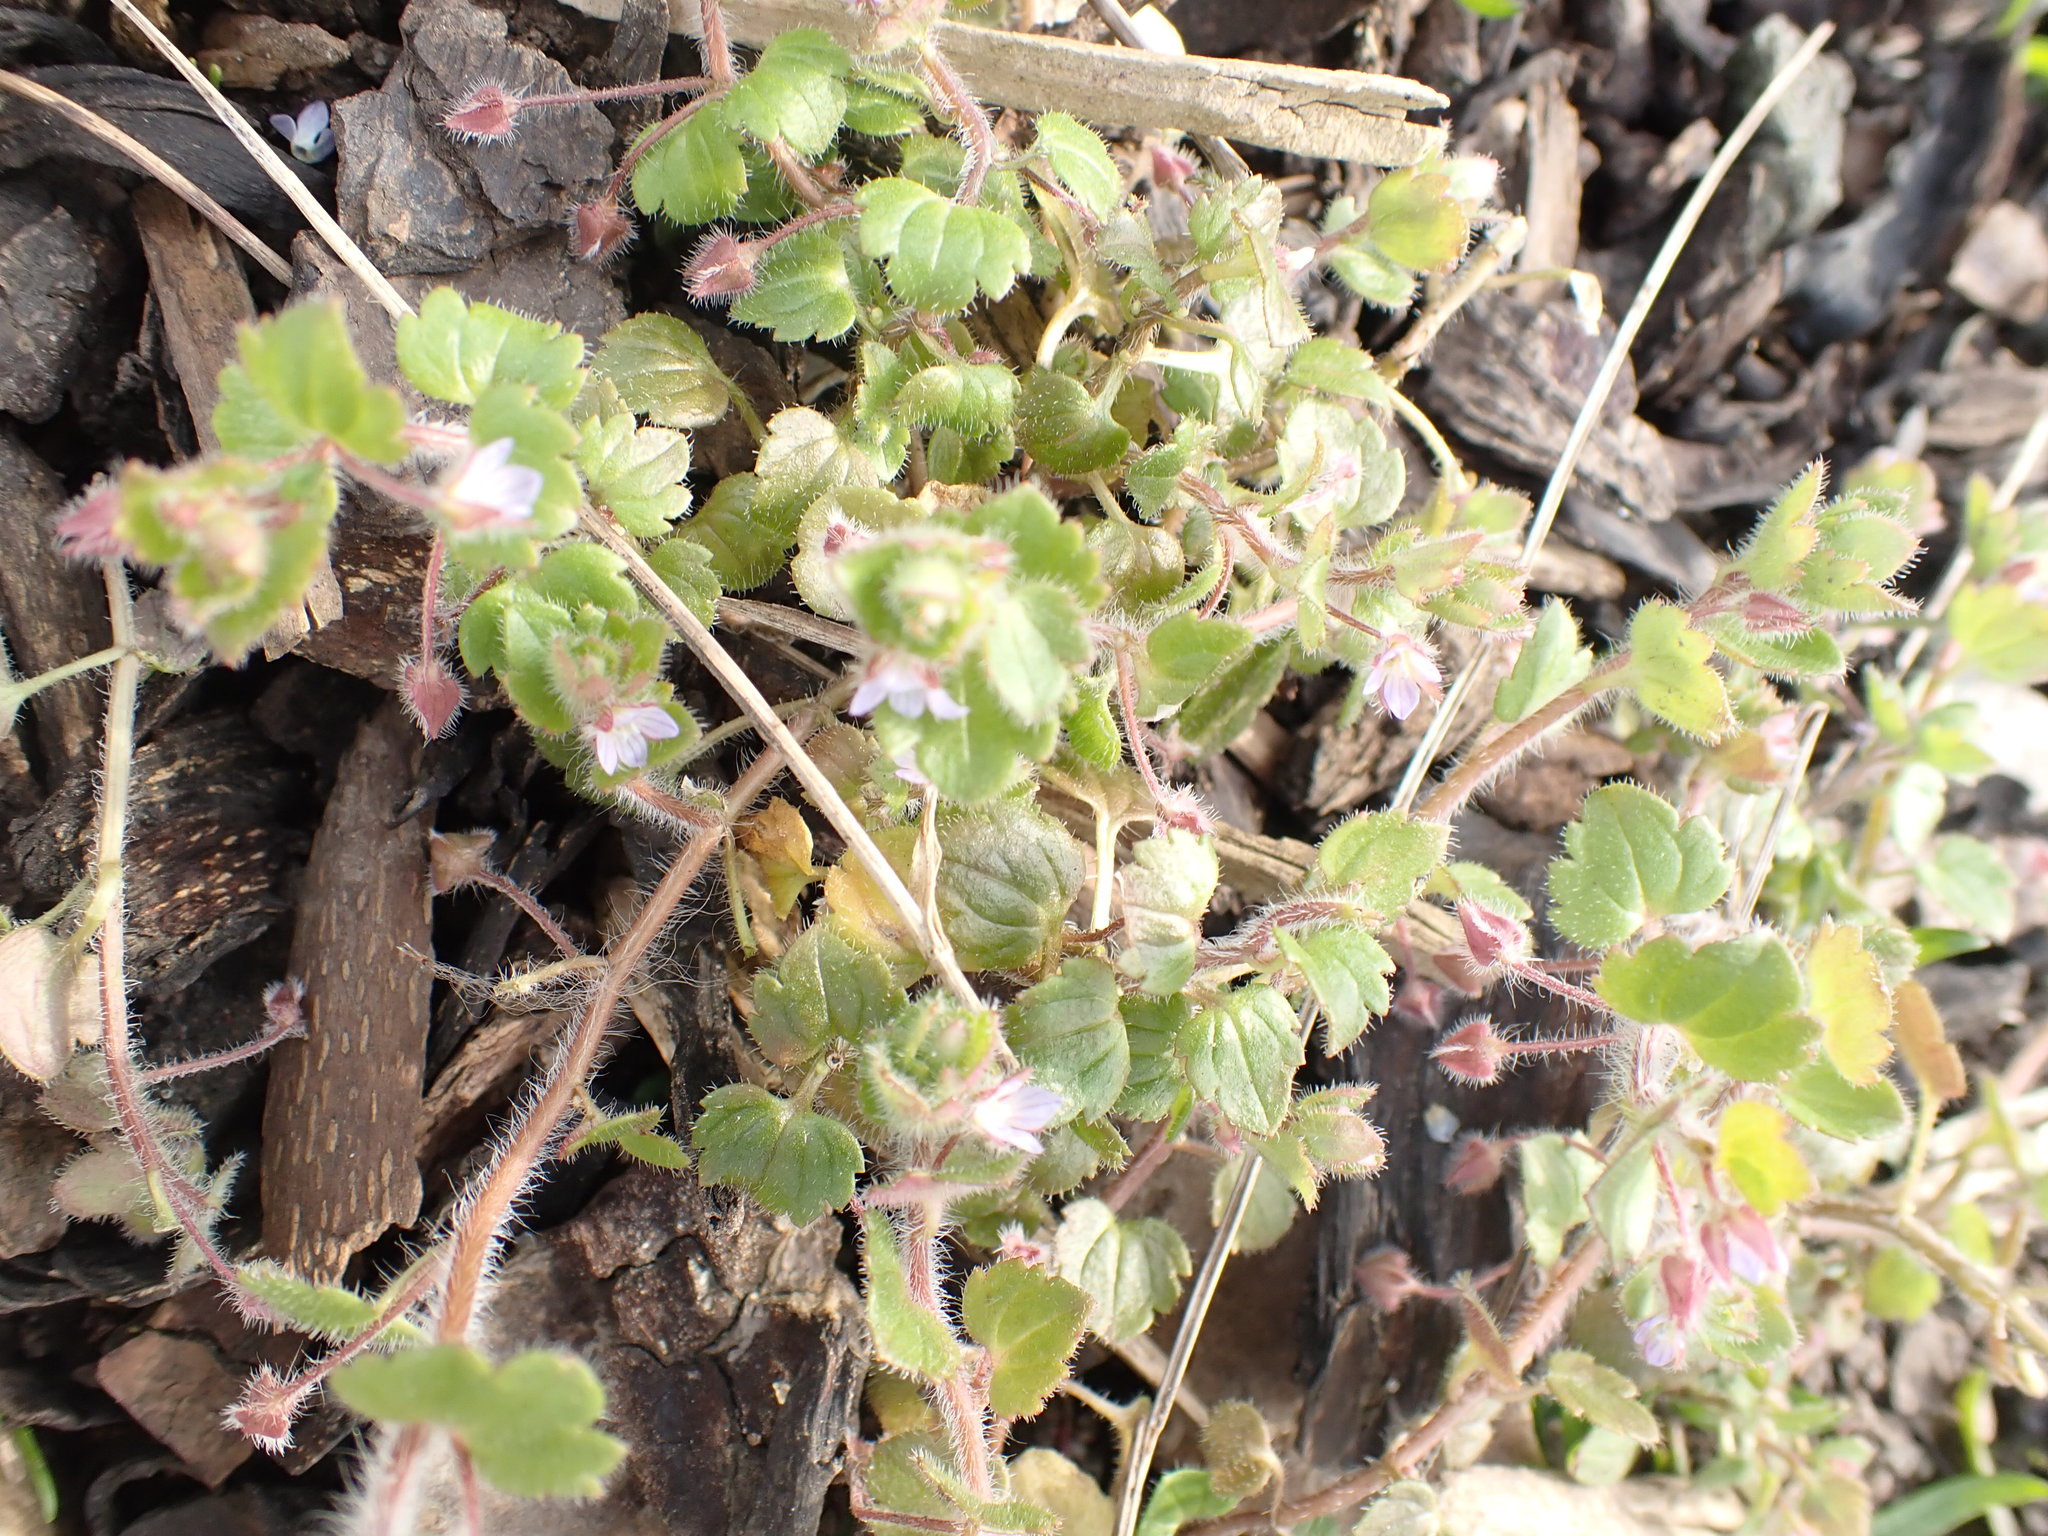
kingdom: Plantae
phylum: Tracheophyta
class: Magnoliopsida
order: Lamiales
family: Plantaginaceae
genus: Veronica
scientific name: Veronica sublobata
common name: False ivy-leaved speedwell
